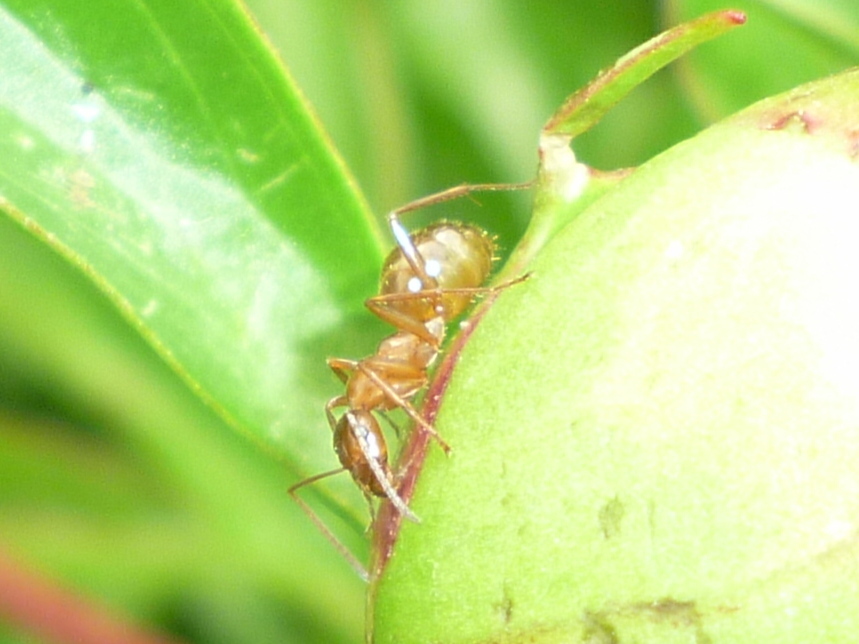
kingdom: Animalia
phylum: Arthropoda
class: Insecta
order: Hymenoptera
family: Formicidae
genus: Formica
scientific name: Formica pallidefulva
